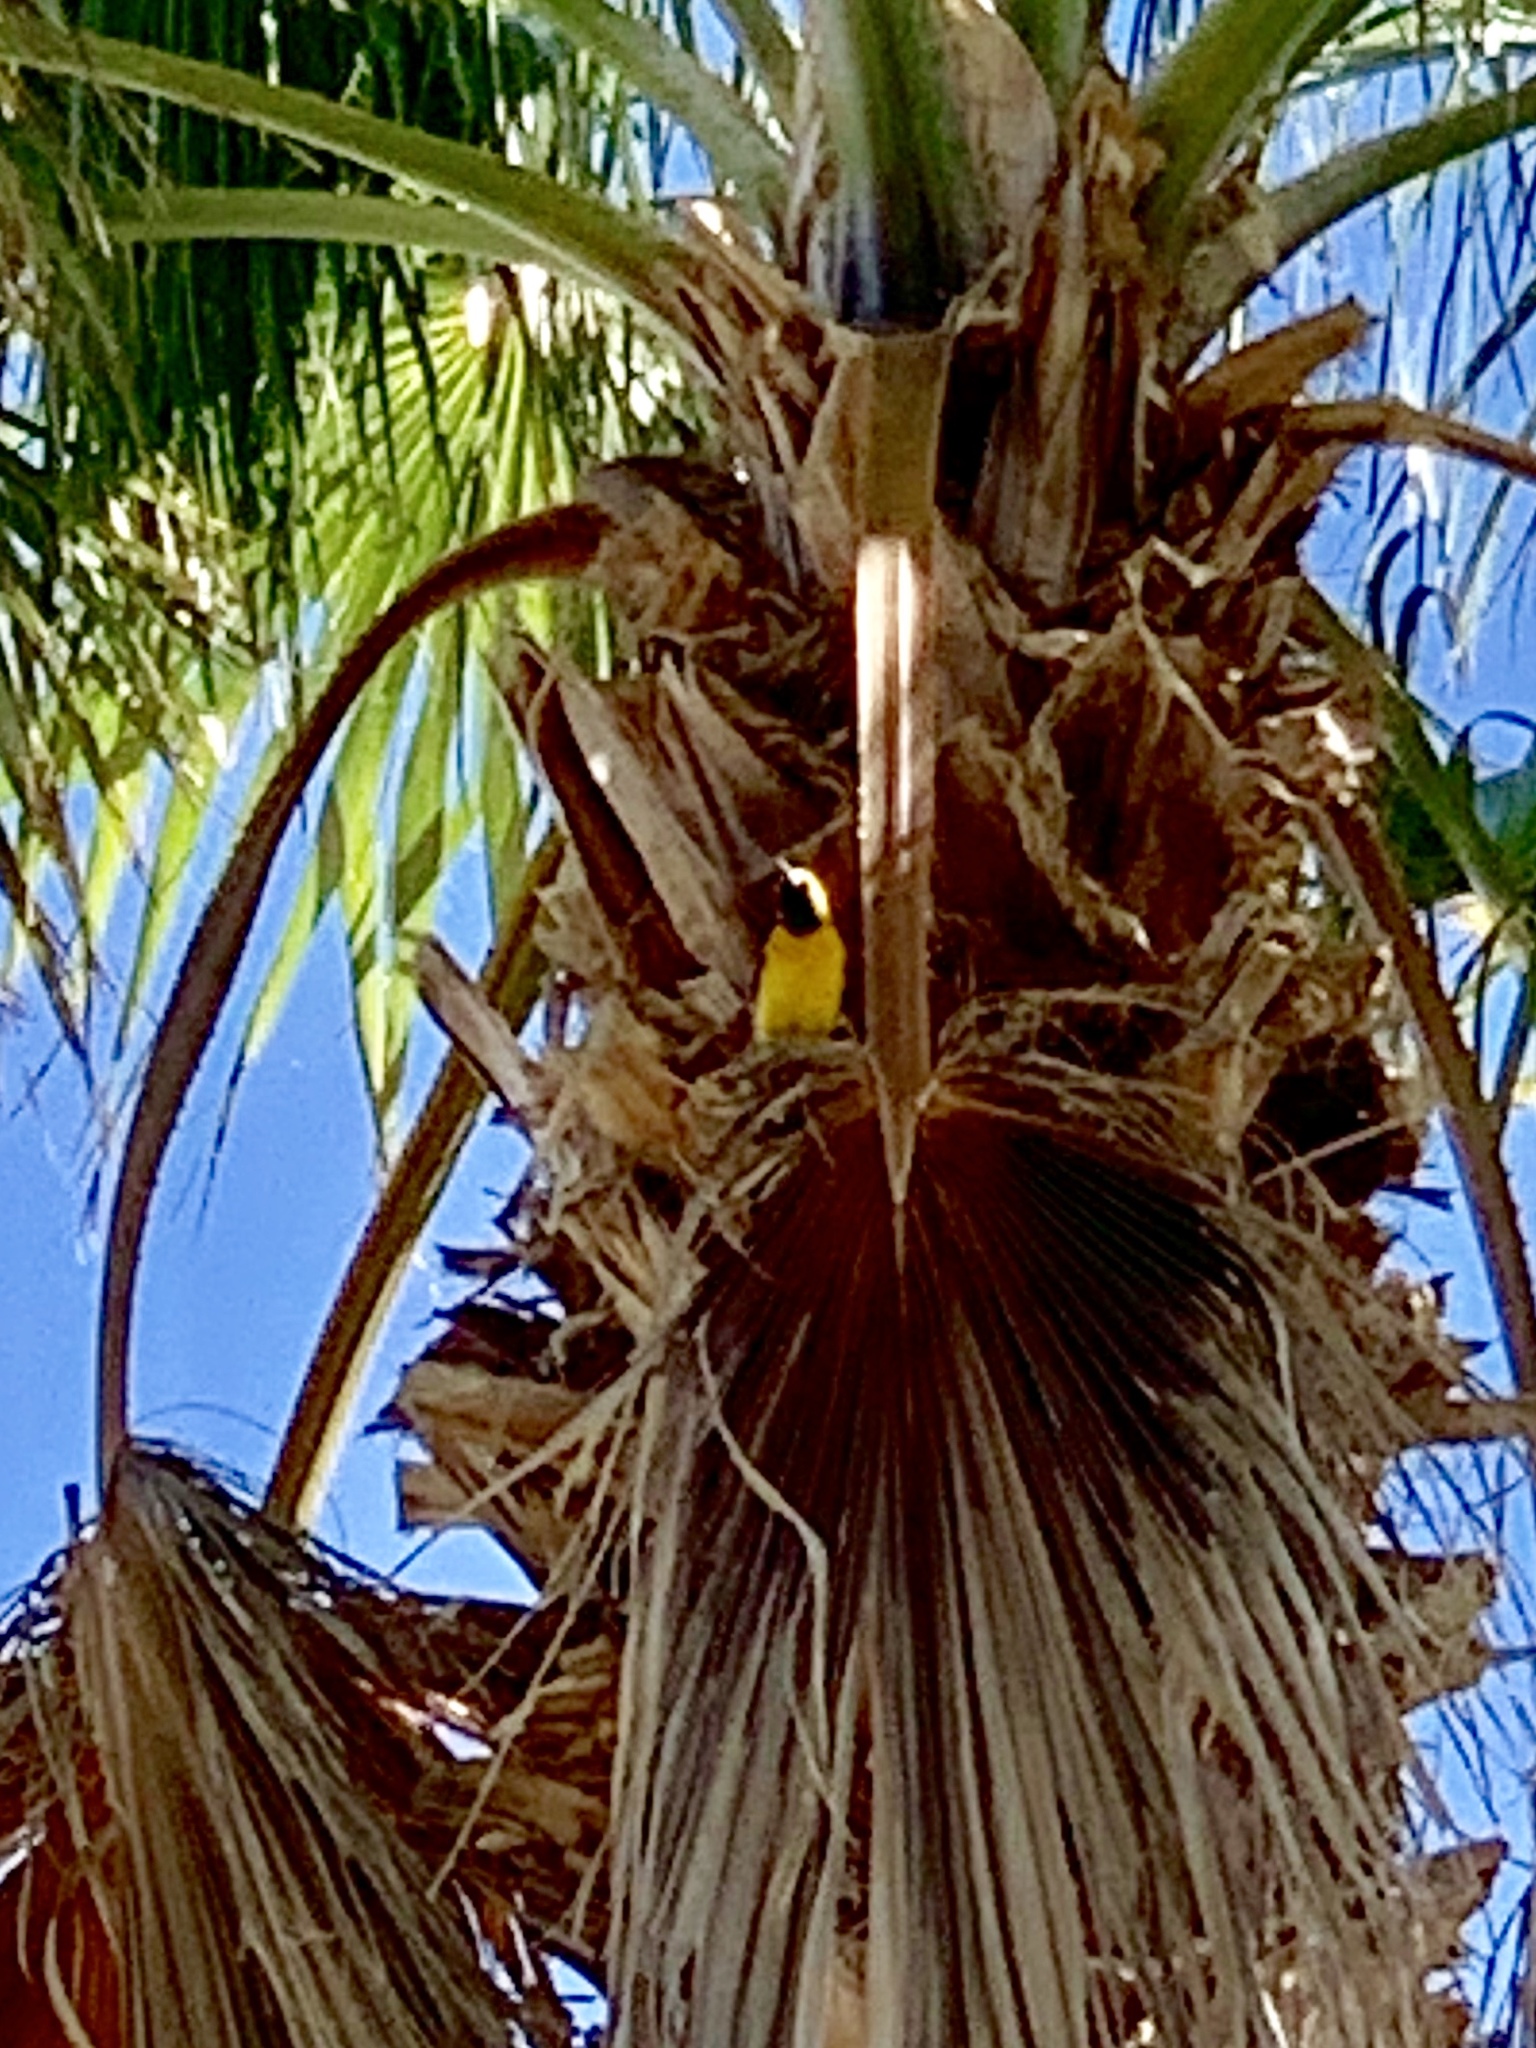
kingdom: Animalia
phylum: Chordata
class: Aves
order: Passeriformes
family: Icteridae
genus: Icterus
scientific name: Icterus cucullatus
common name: Hooded oriole
